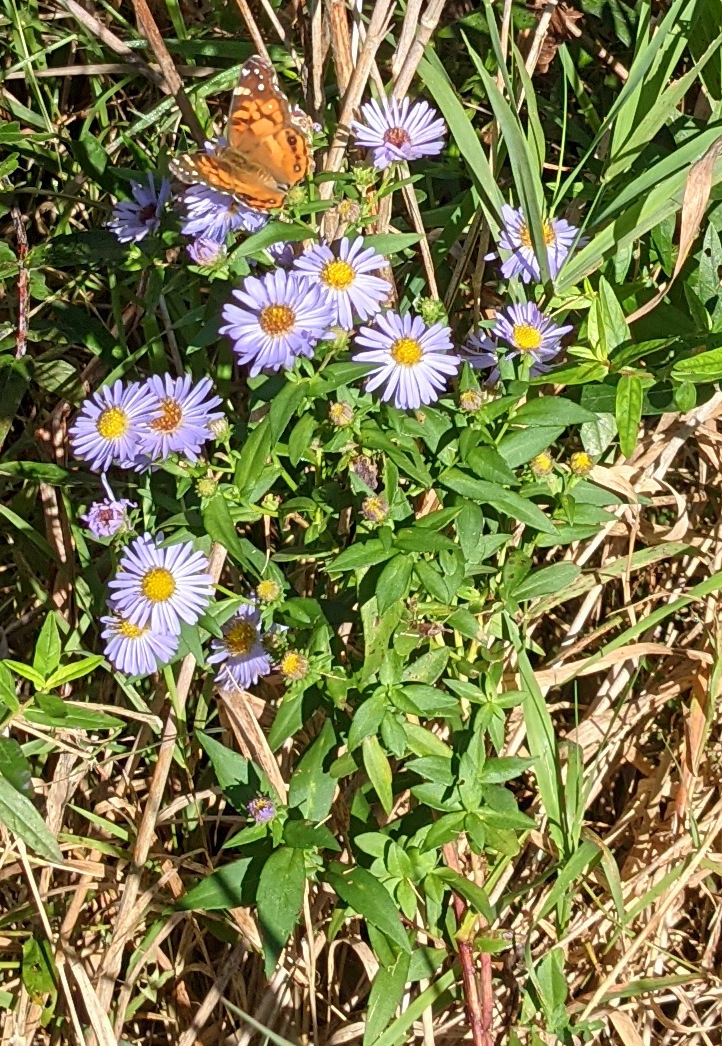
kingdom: Plantae
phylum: Tracheophyta
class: Magnoliopsida
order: Asterales
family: Asteraceae
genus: Symphyotrichum
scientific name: Symphyotrichum novae-angliae
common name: Michaelmas daisy
